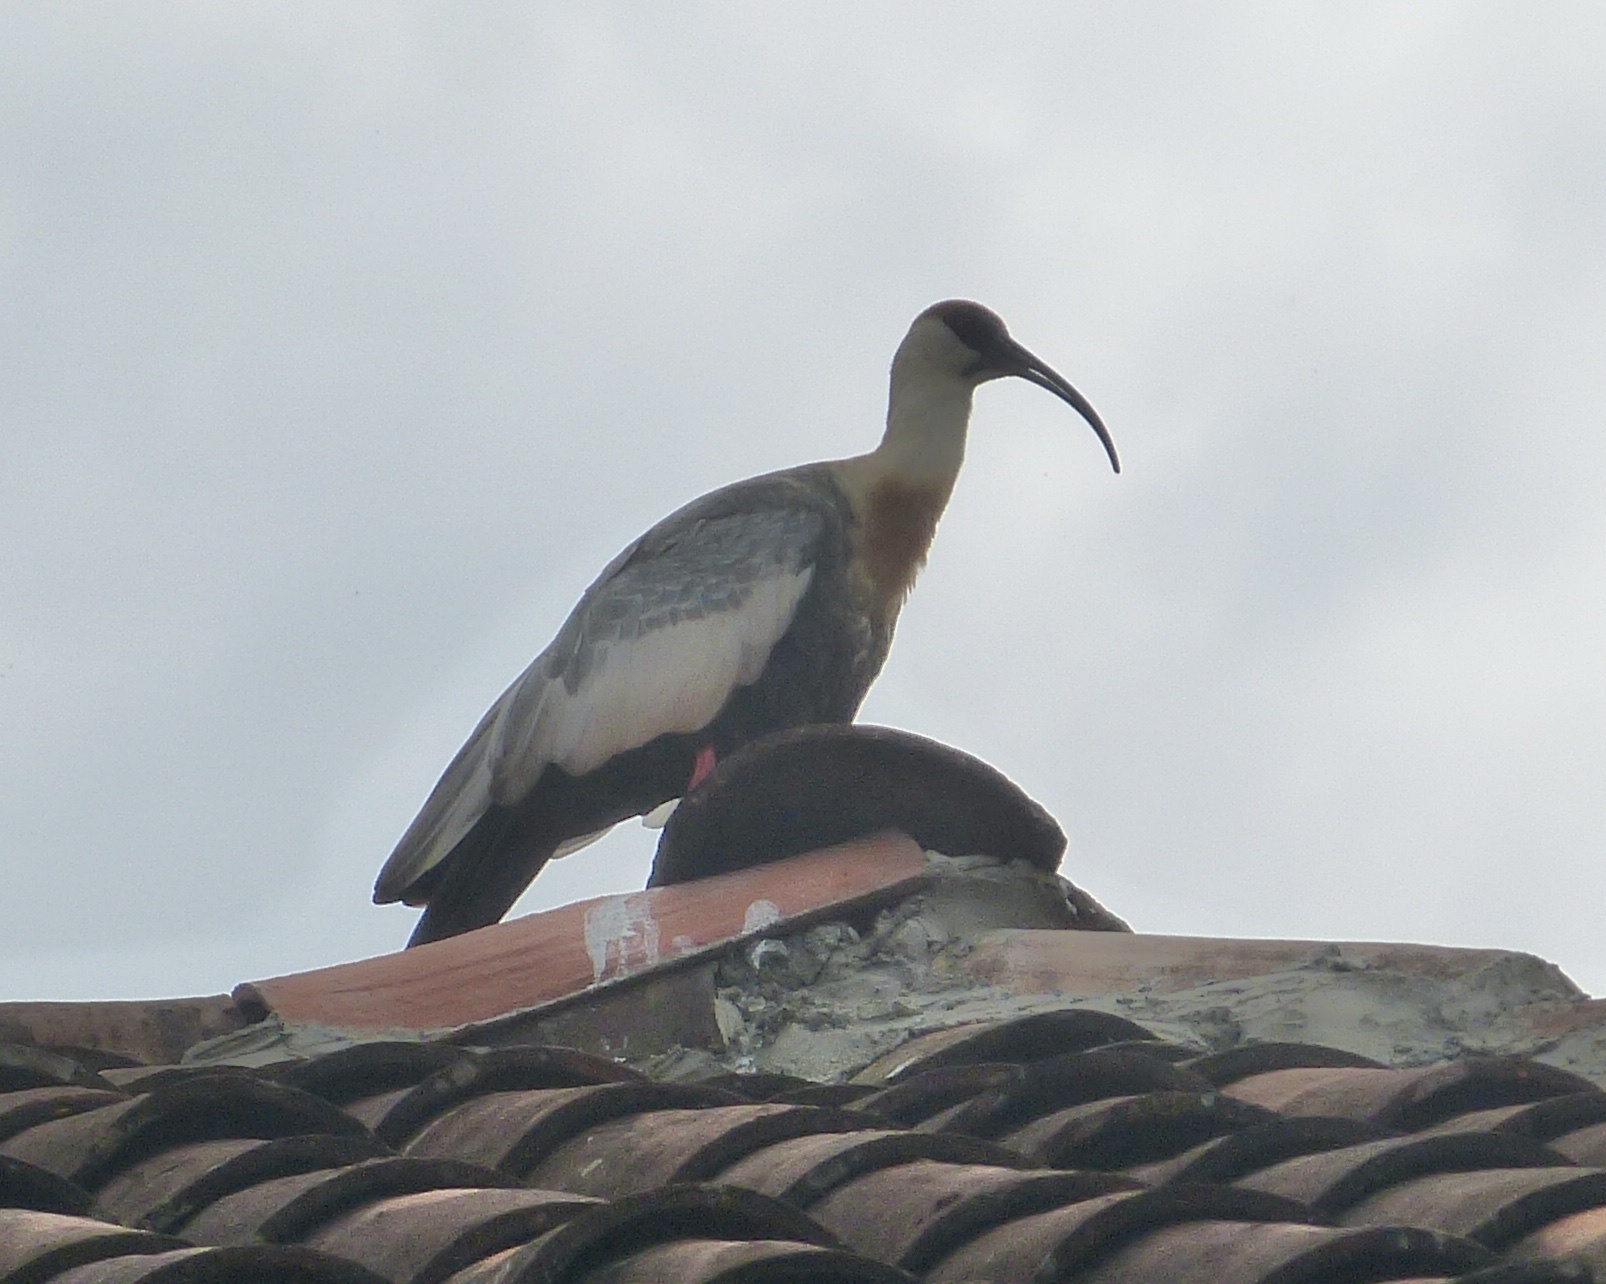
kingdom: Animalia
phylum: Chordata
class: Aves
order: Pelecaniformes
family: Threskiornithidae
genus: Theristicus
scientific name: Theristicus caudatus
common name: Buff-necked ibis
